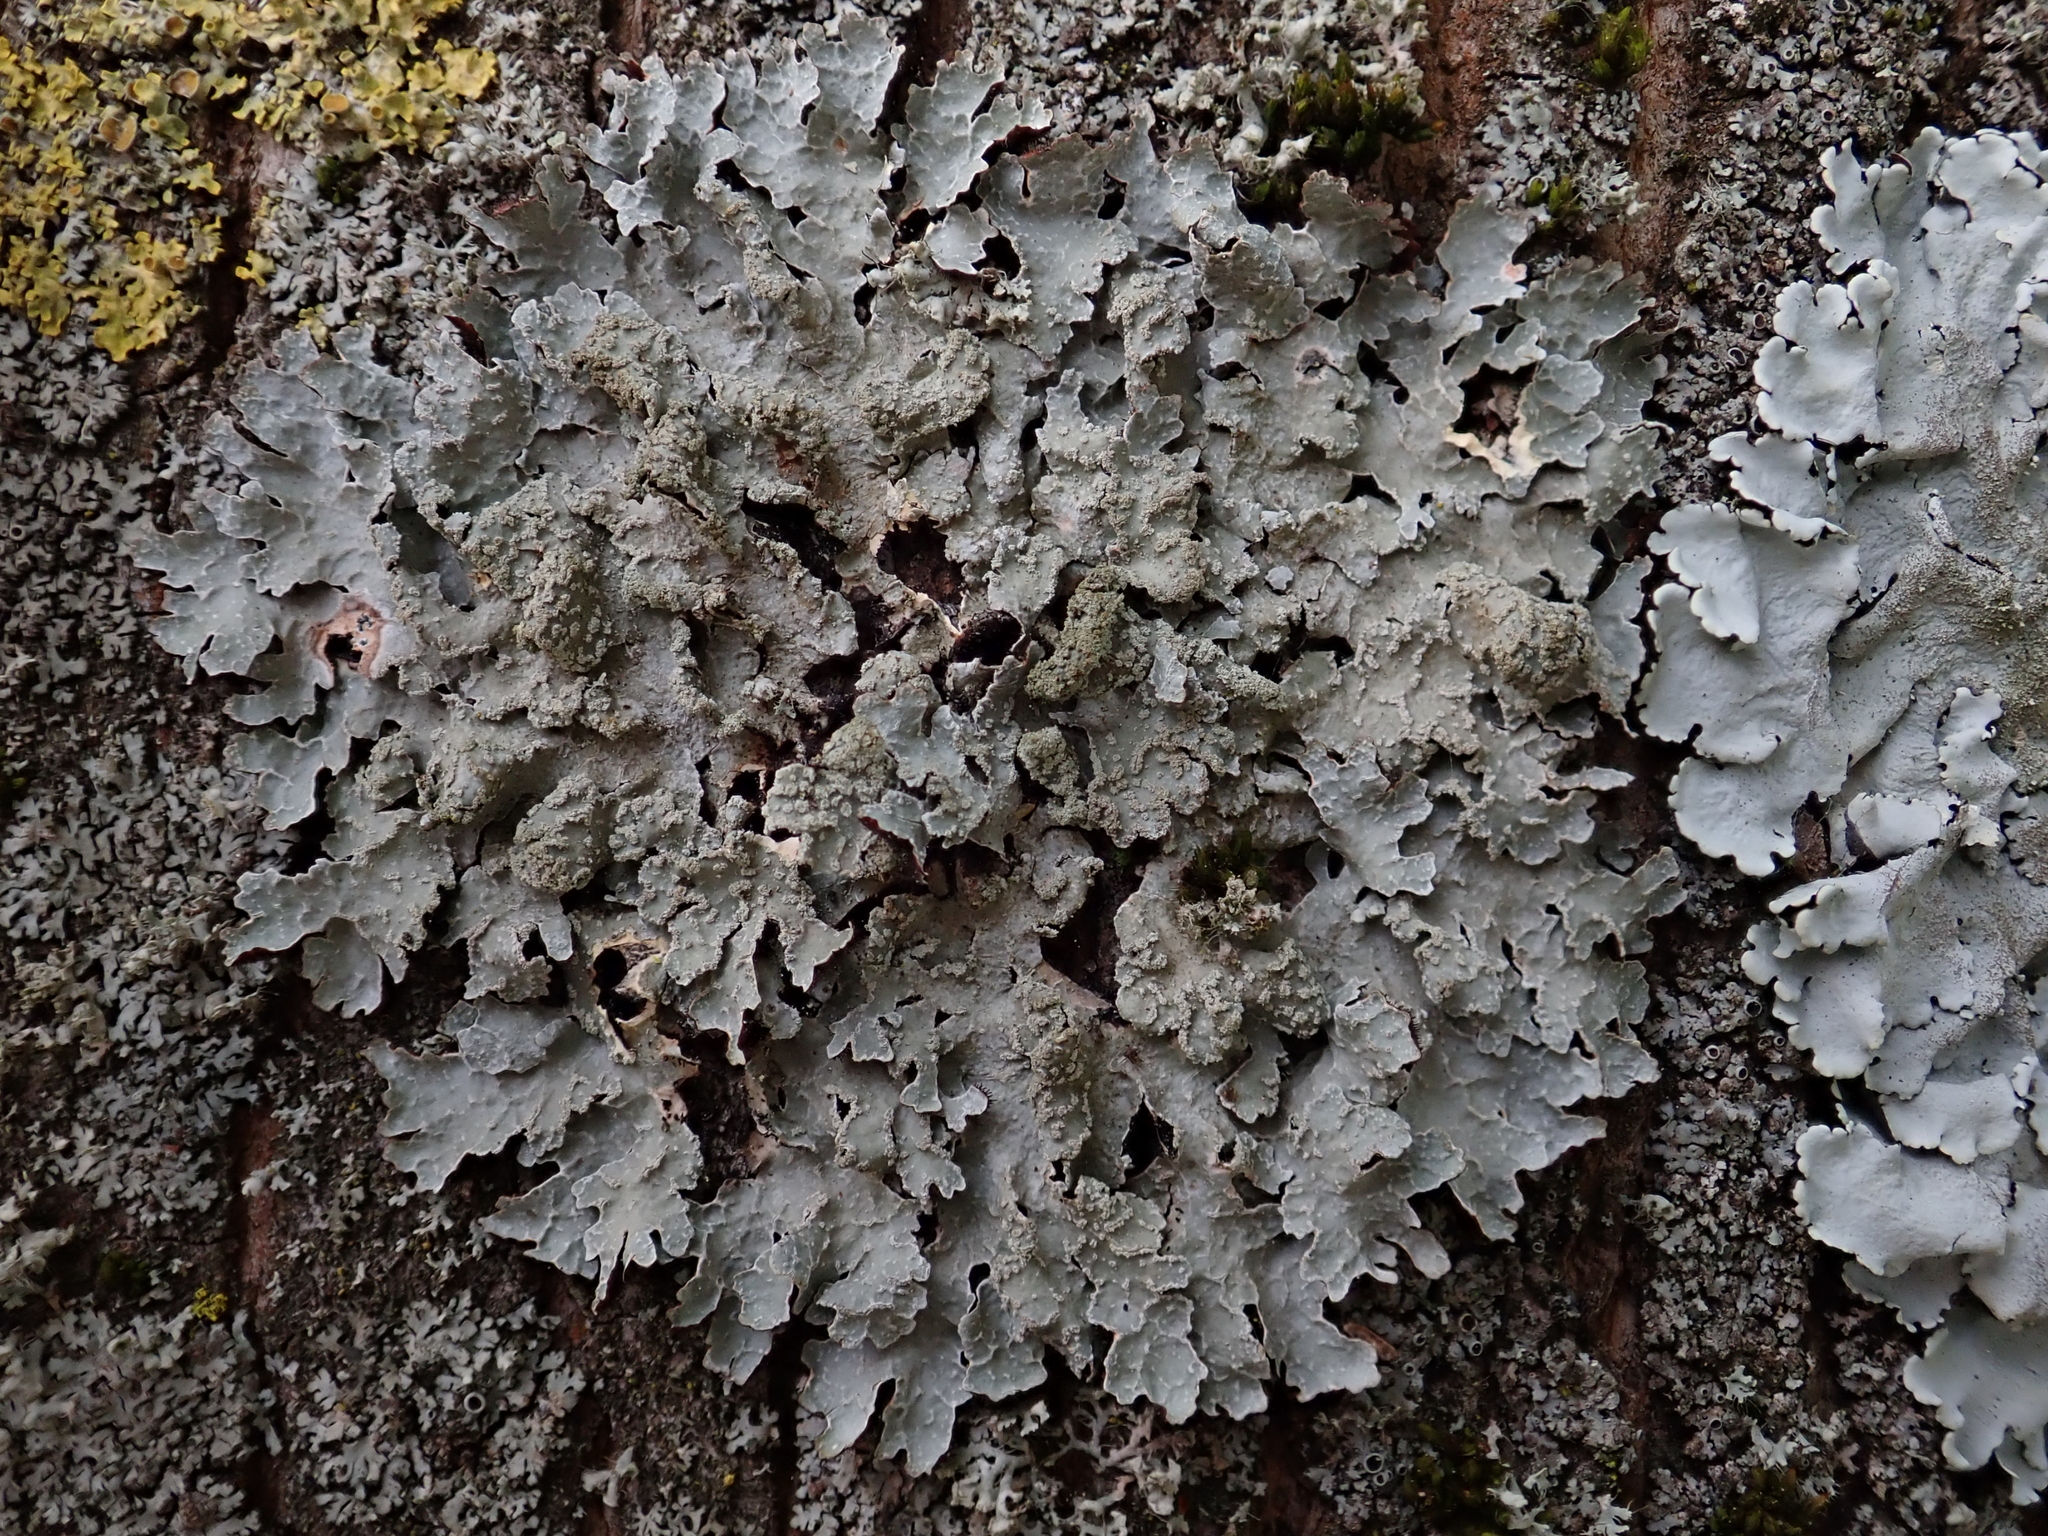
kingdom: Fungi
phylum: Ascomycota
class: Lecanoromycetes
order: Lecanorales
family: Parmeliaceae
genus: Parmelia
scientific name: Parmelia sulcata
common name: Netted shield lichen
